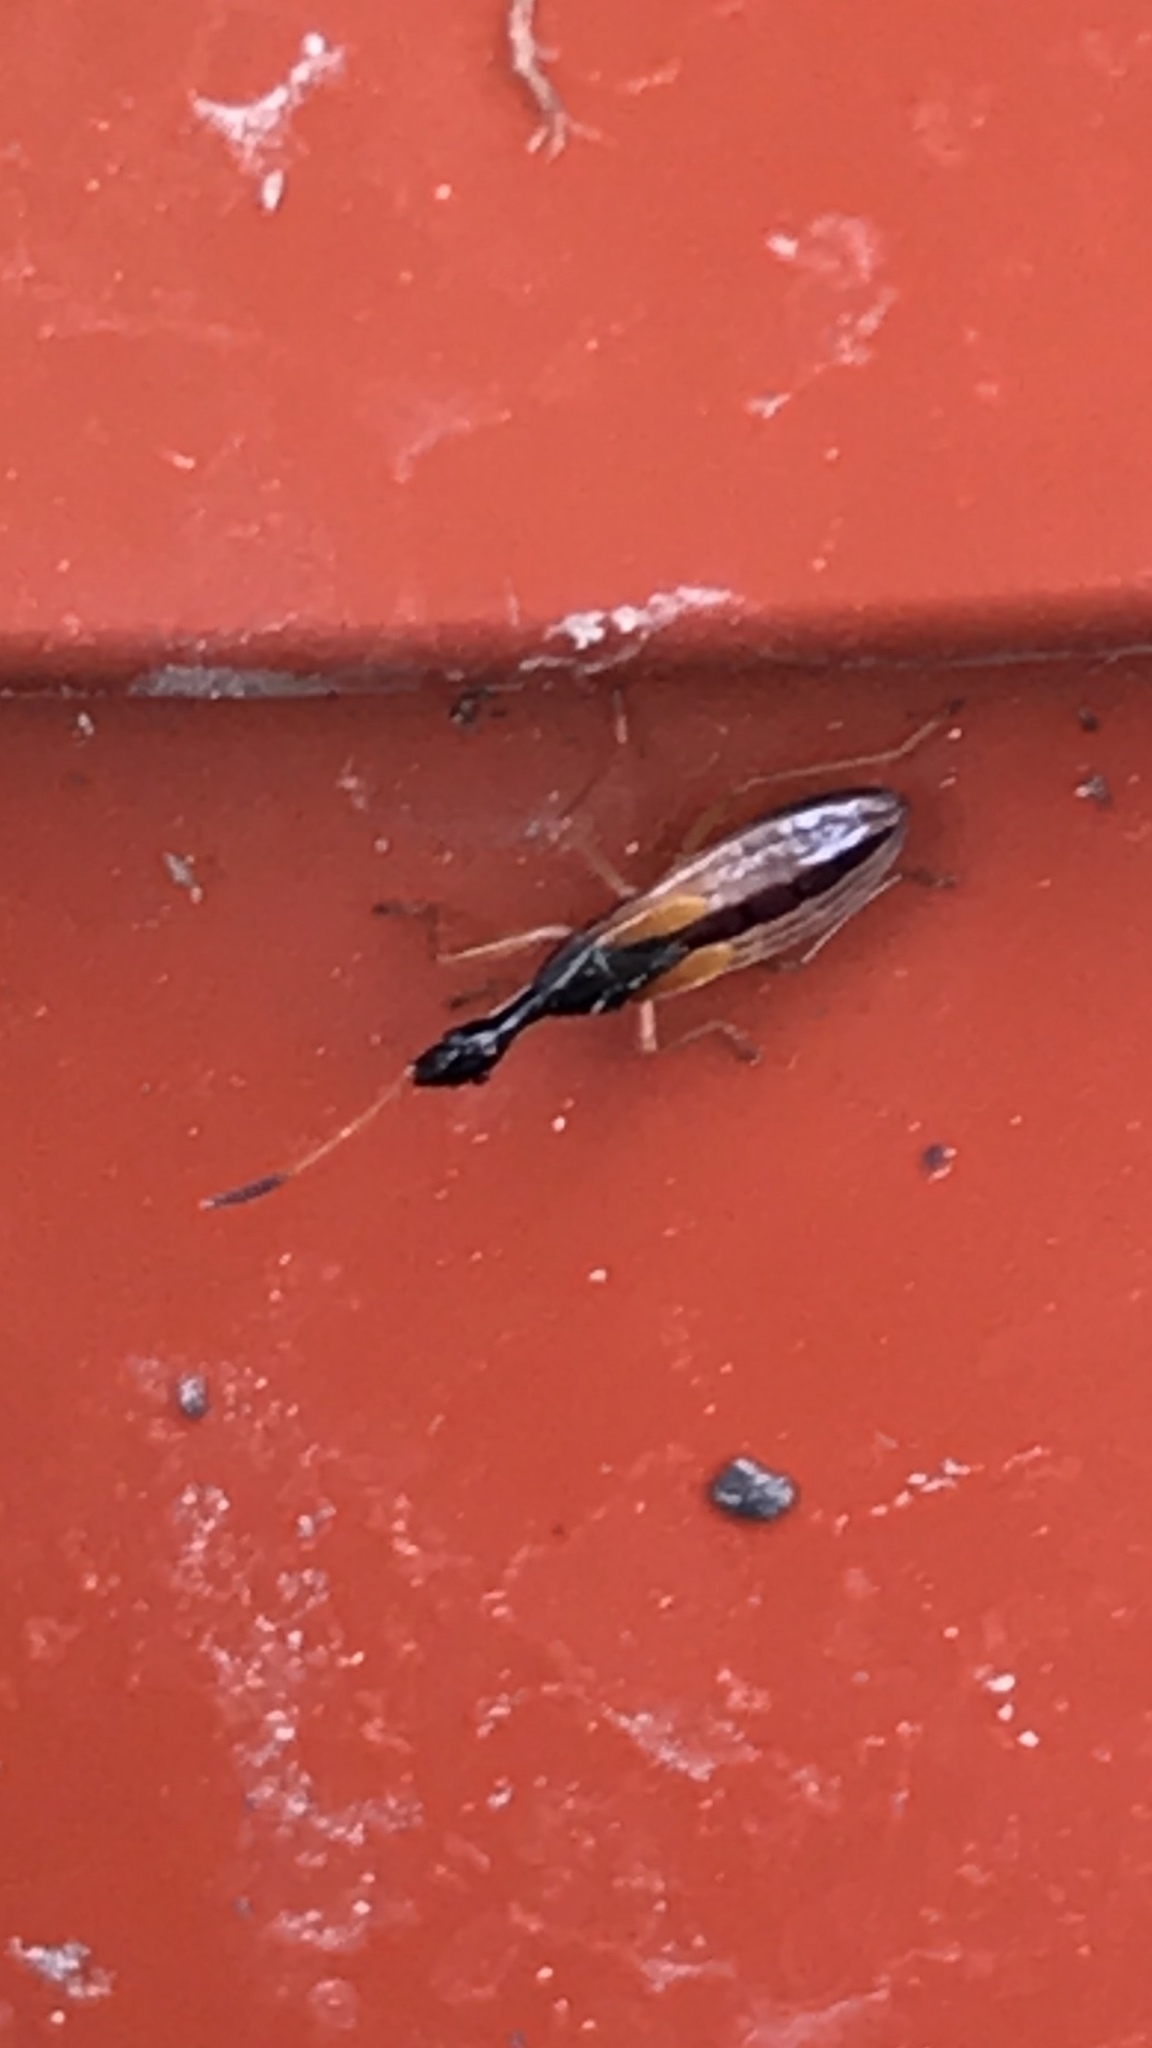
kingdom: Animalia
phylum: Arthropoda
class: Insecta
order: Hemiptera
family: Rhyparochromidae
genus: Myodocha
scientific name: Myodocha serripes
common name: Long-necked seed bug
